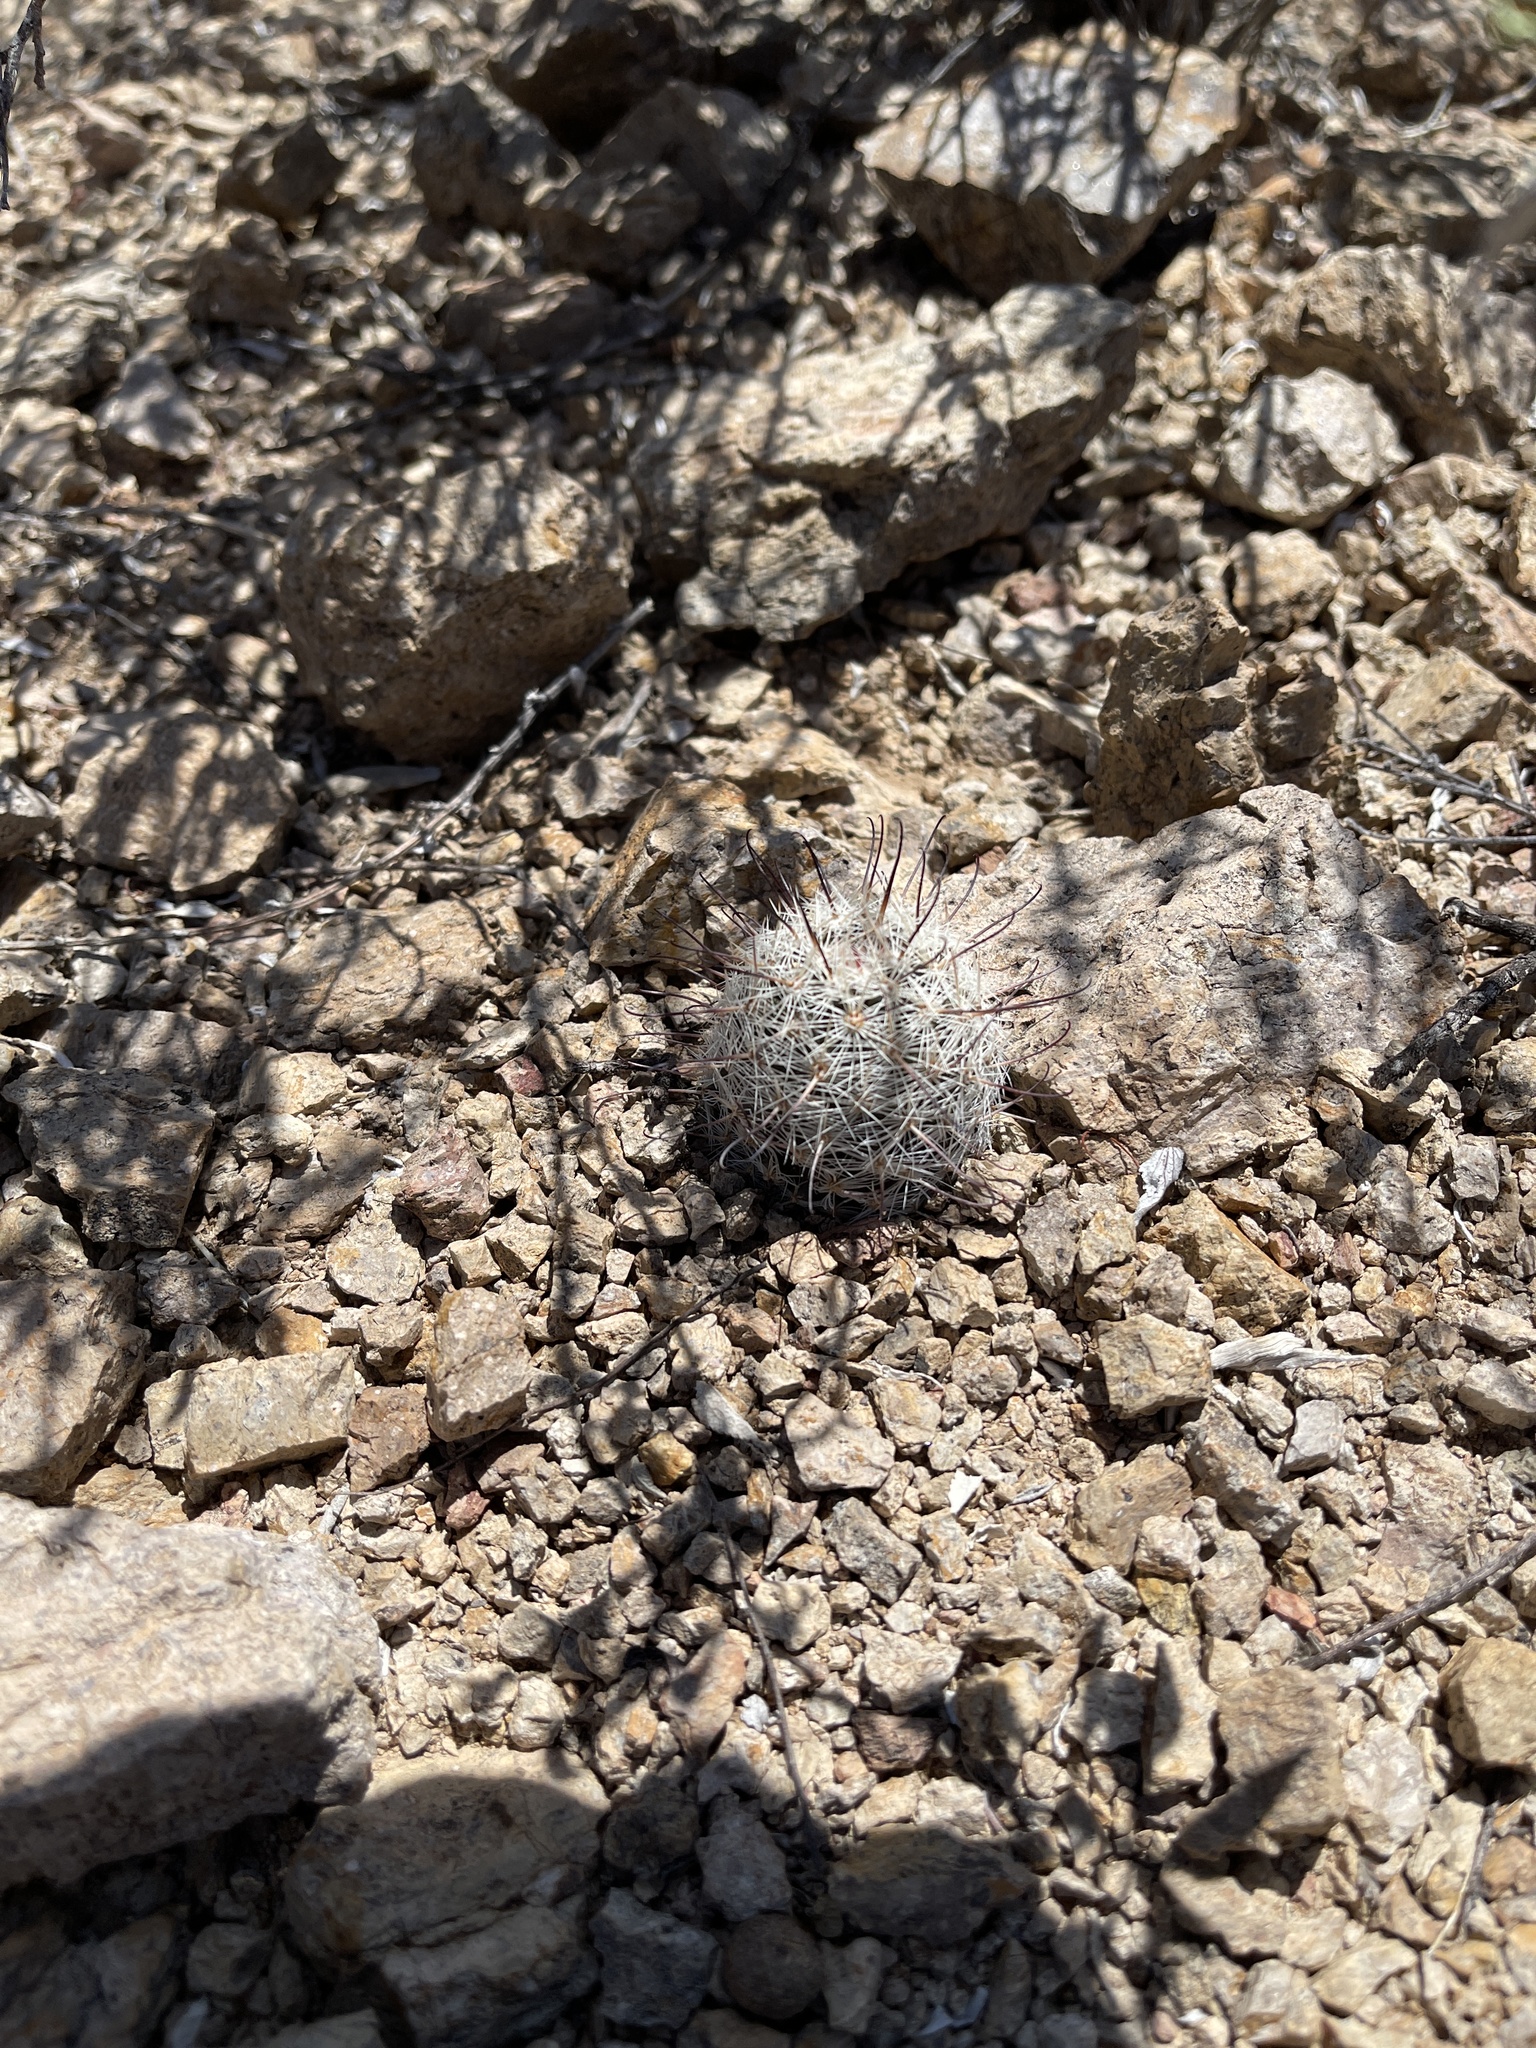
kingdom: Plantae
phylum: Tracheophyta
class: Magnoliopsida
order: Caryophyllales
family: Cactaceae
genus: Cochemiea
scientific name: Cochemiea grahamii
